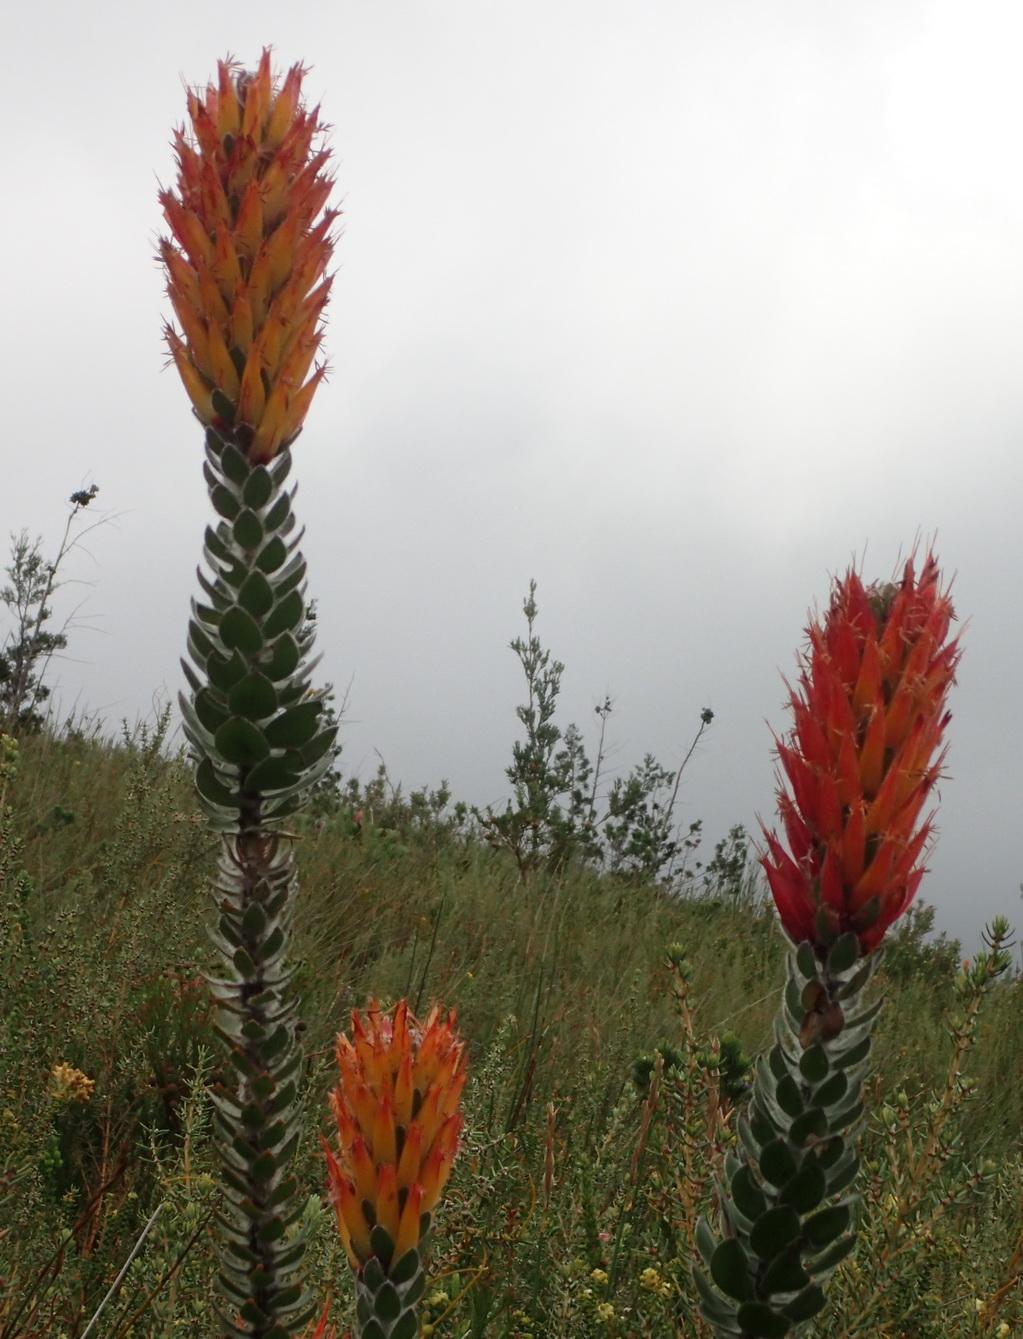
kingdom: Plantae
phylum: Tracheophyta
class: Magnoliopsida
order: Proteales
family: Proteaceae
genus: Mimetes
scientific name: Mimetes pauciflora
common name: Three-flowered pagoda
